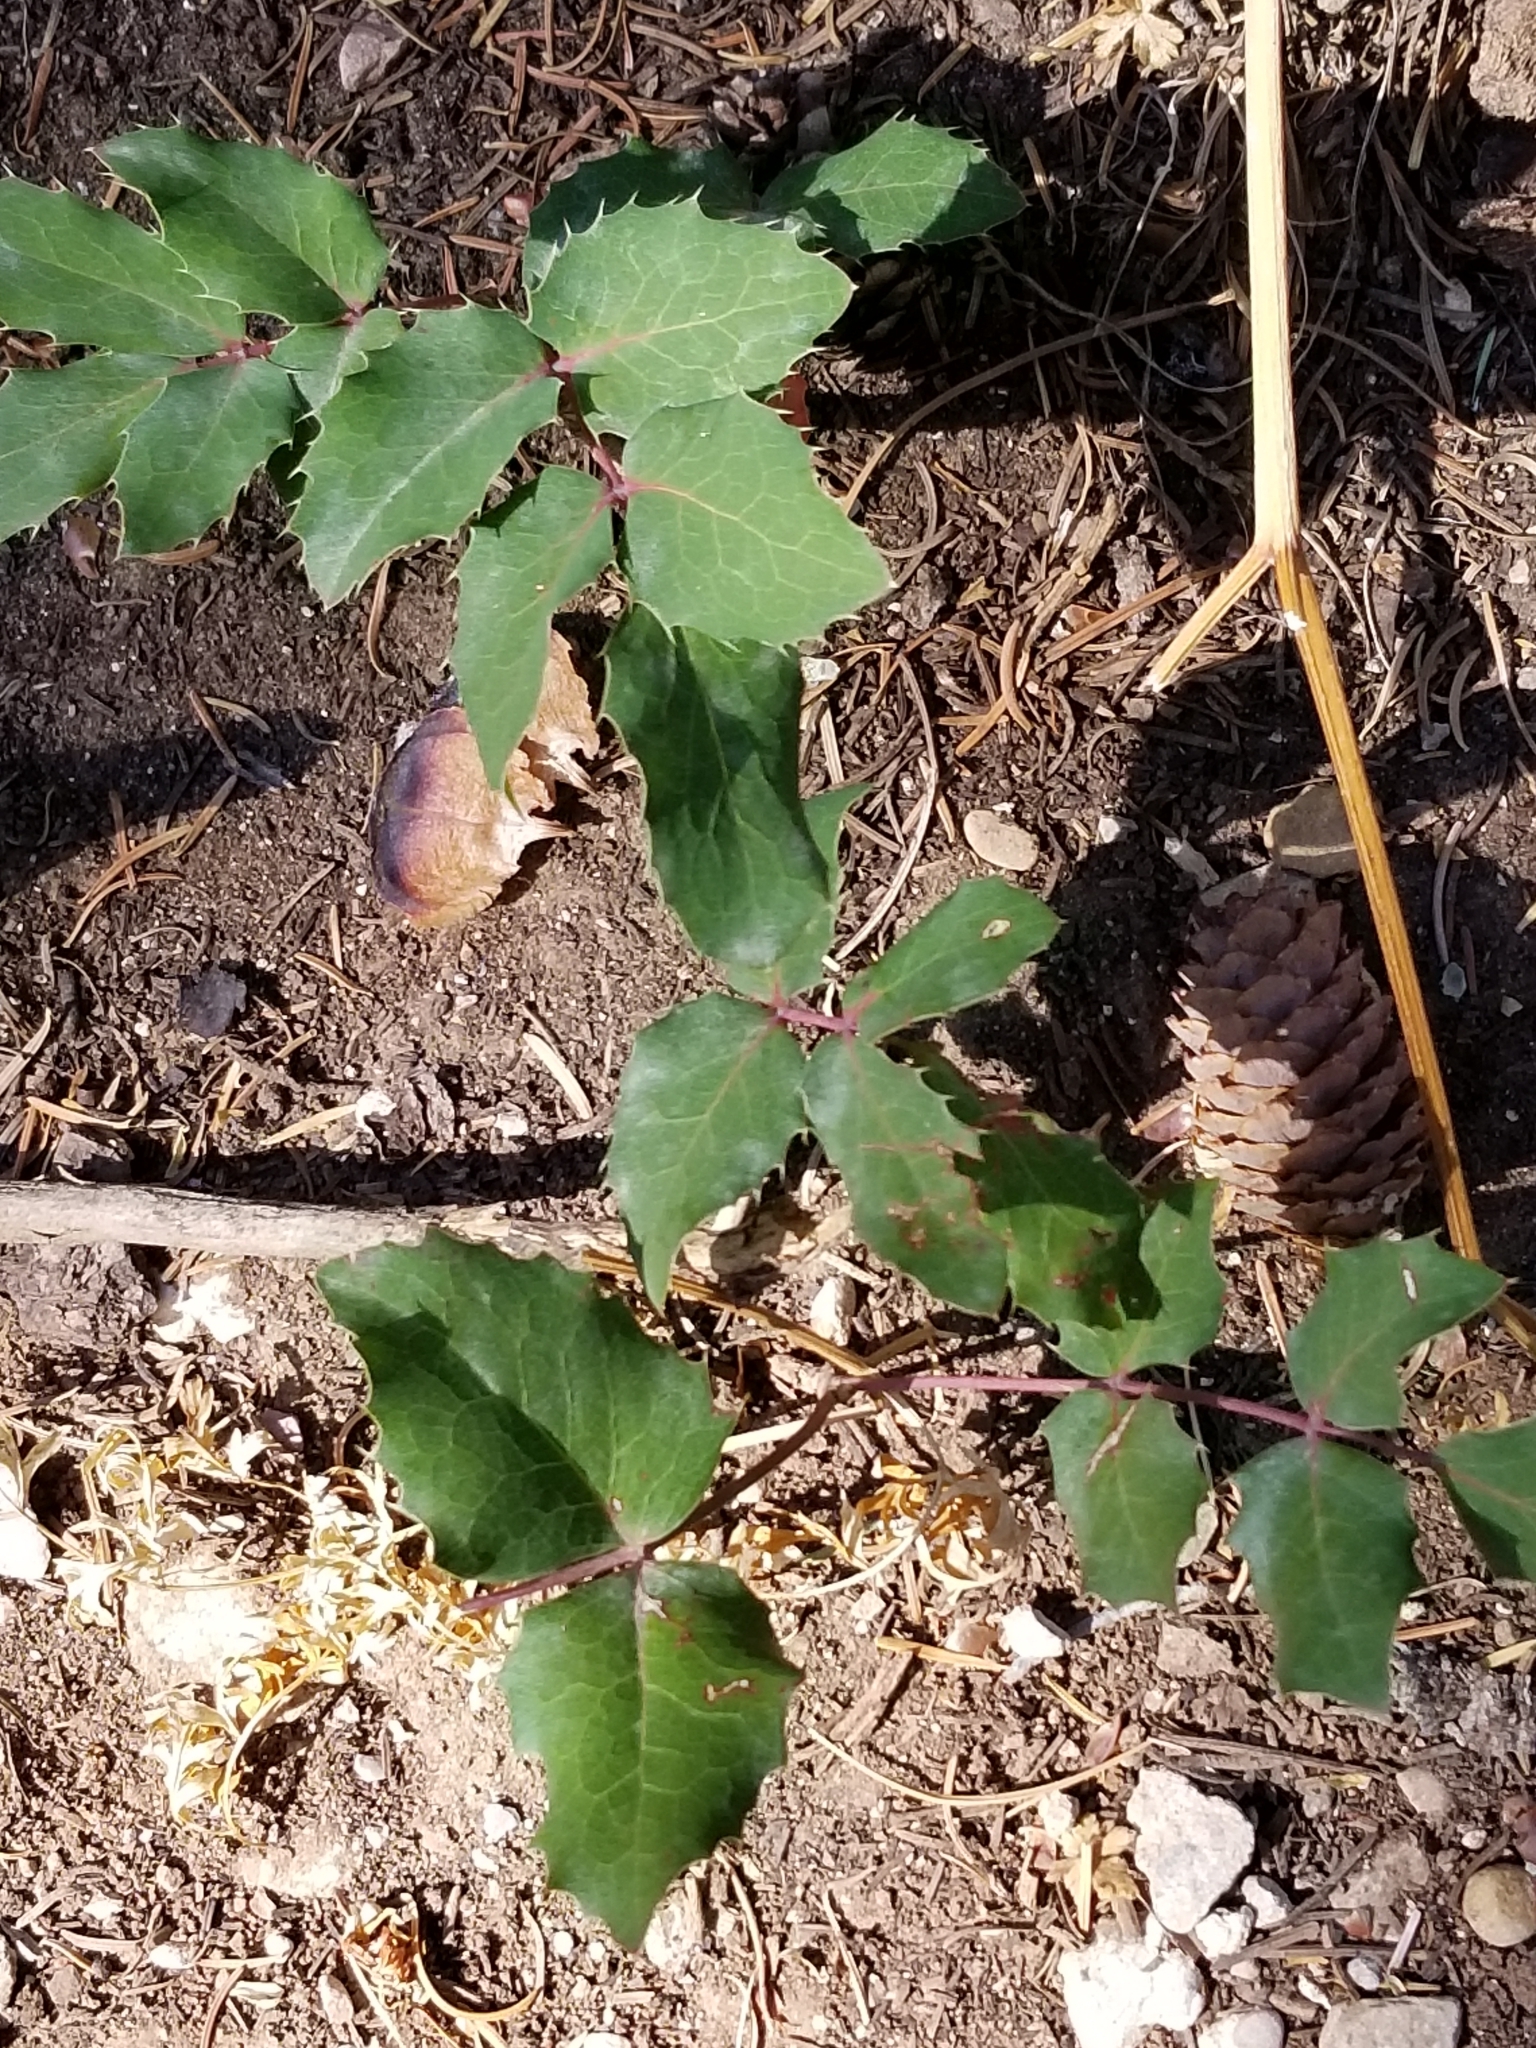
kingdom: Plantae
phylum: Tracheophyta
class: Magnoliopsida
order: Ranunculales
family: Berberidaceae
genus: Mahonia
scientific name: Mahonia repens
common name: Creeping oregon-grape
